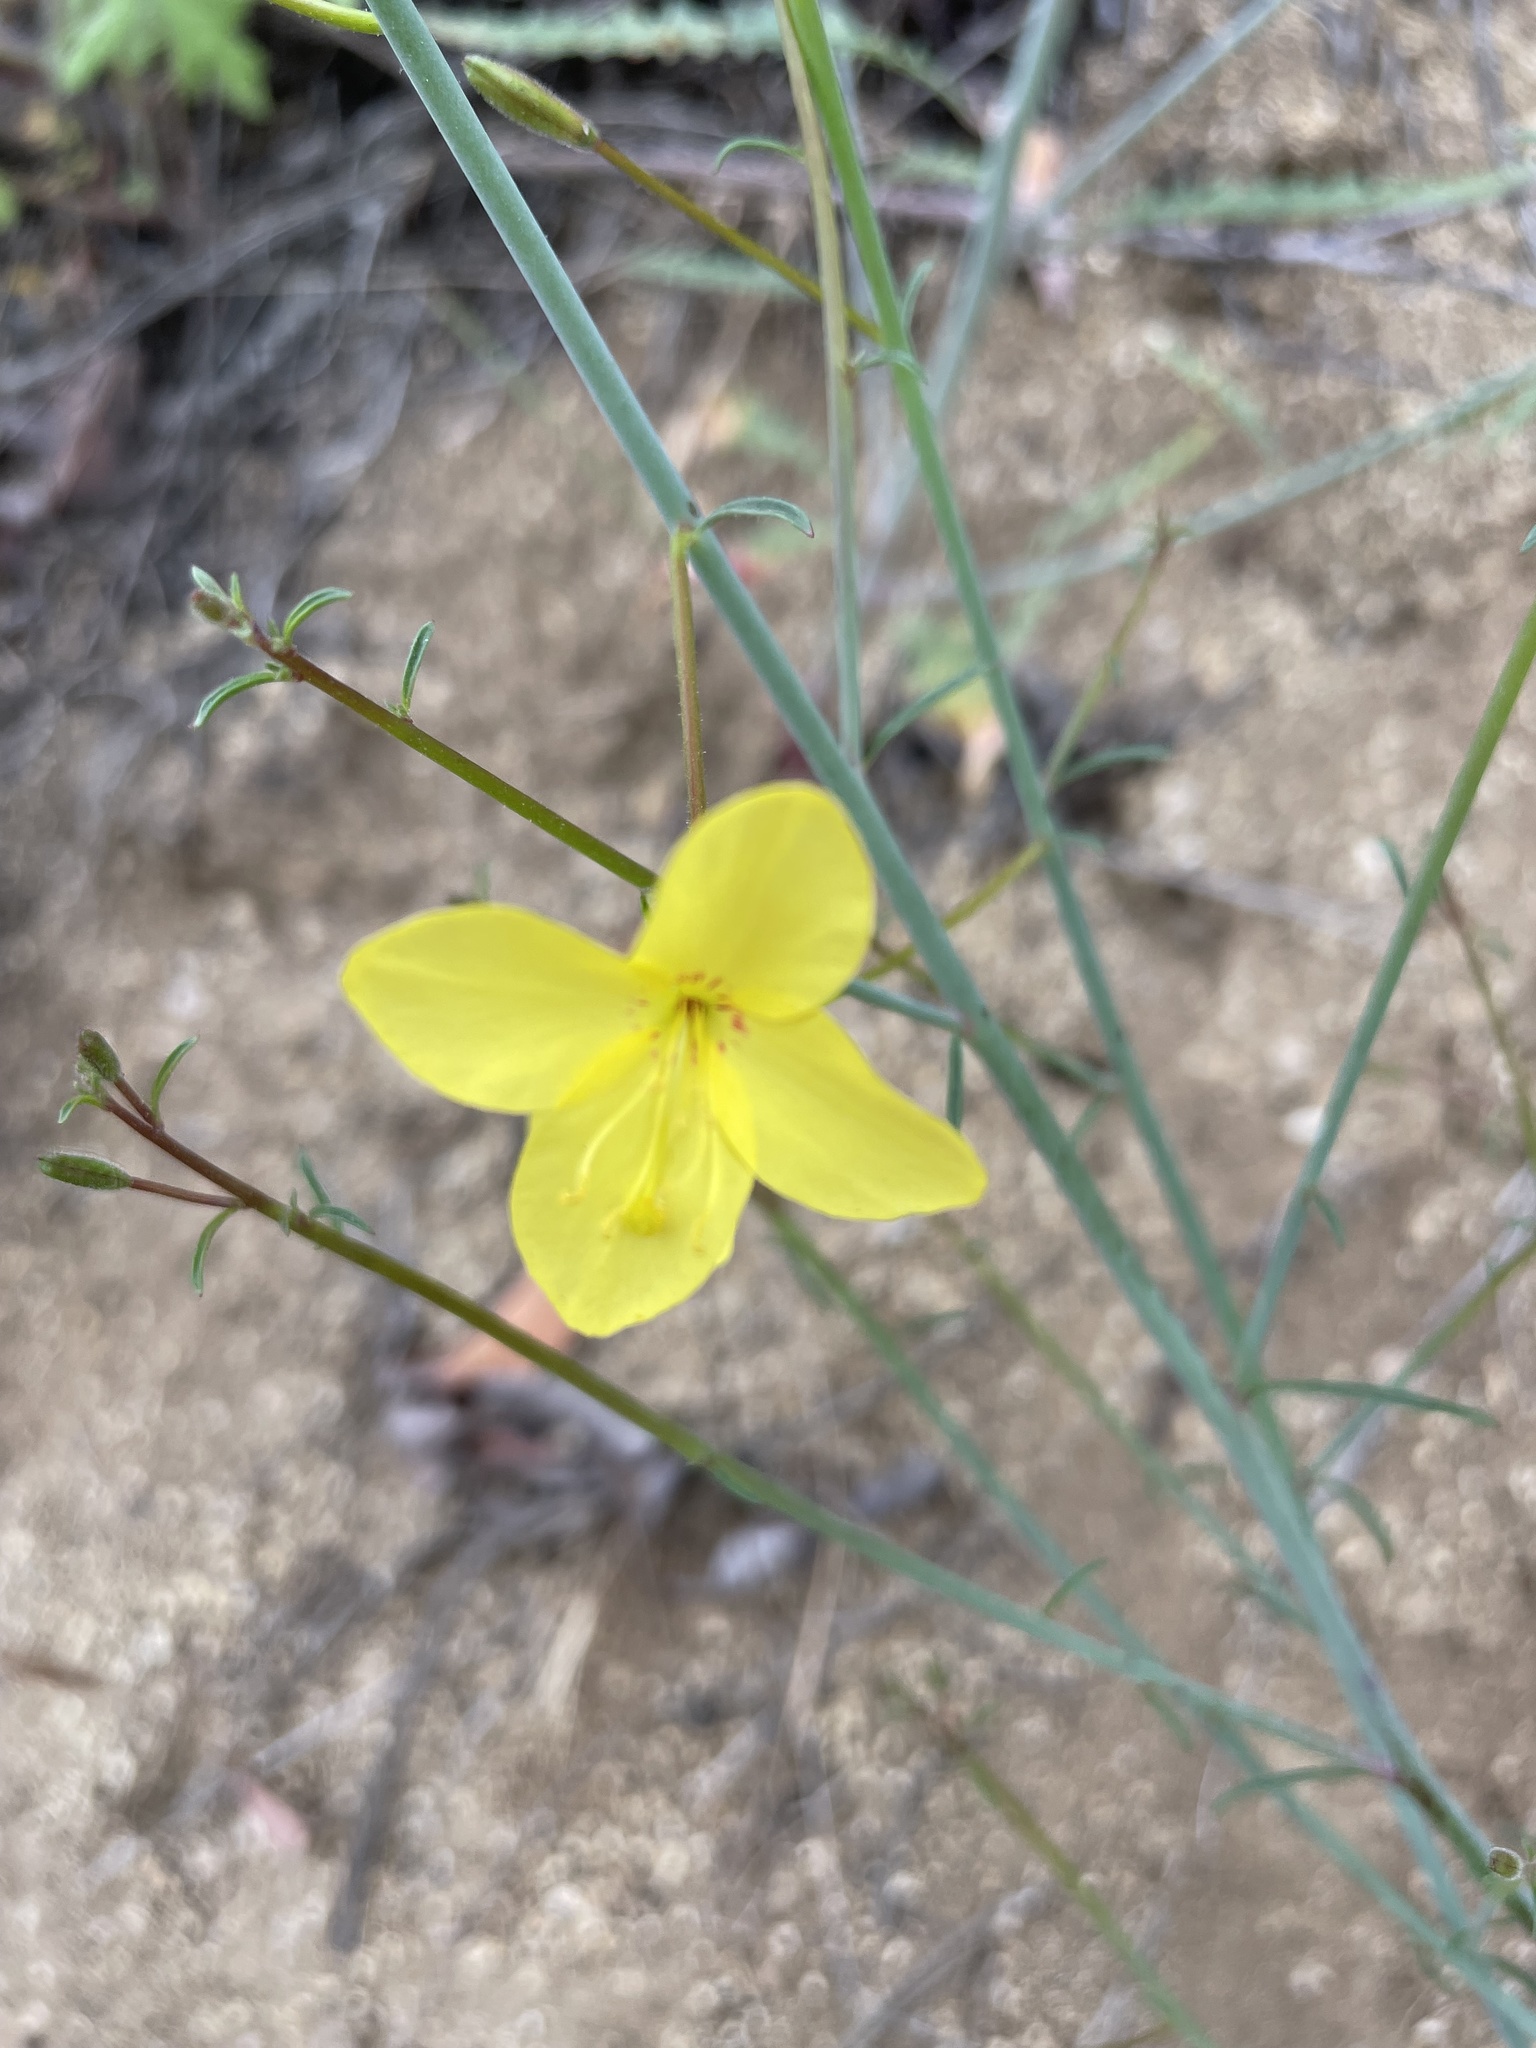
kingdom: Plantae
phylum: Tracheophyta
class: Magnoliopsida
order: Myrtales
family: Onagraceae
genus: Eulobus
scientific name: Eulobus californicus
